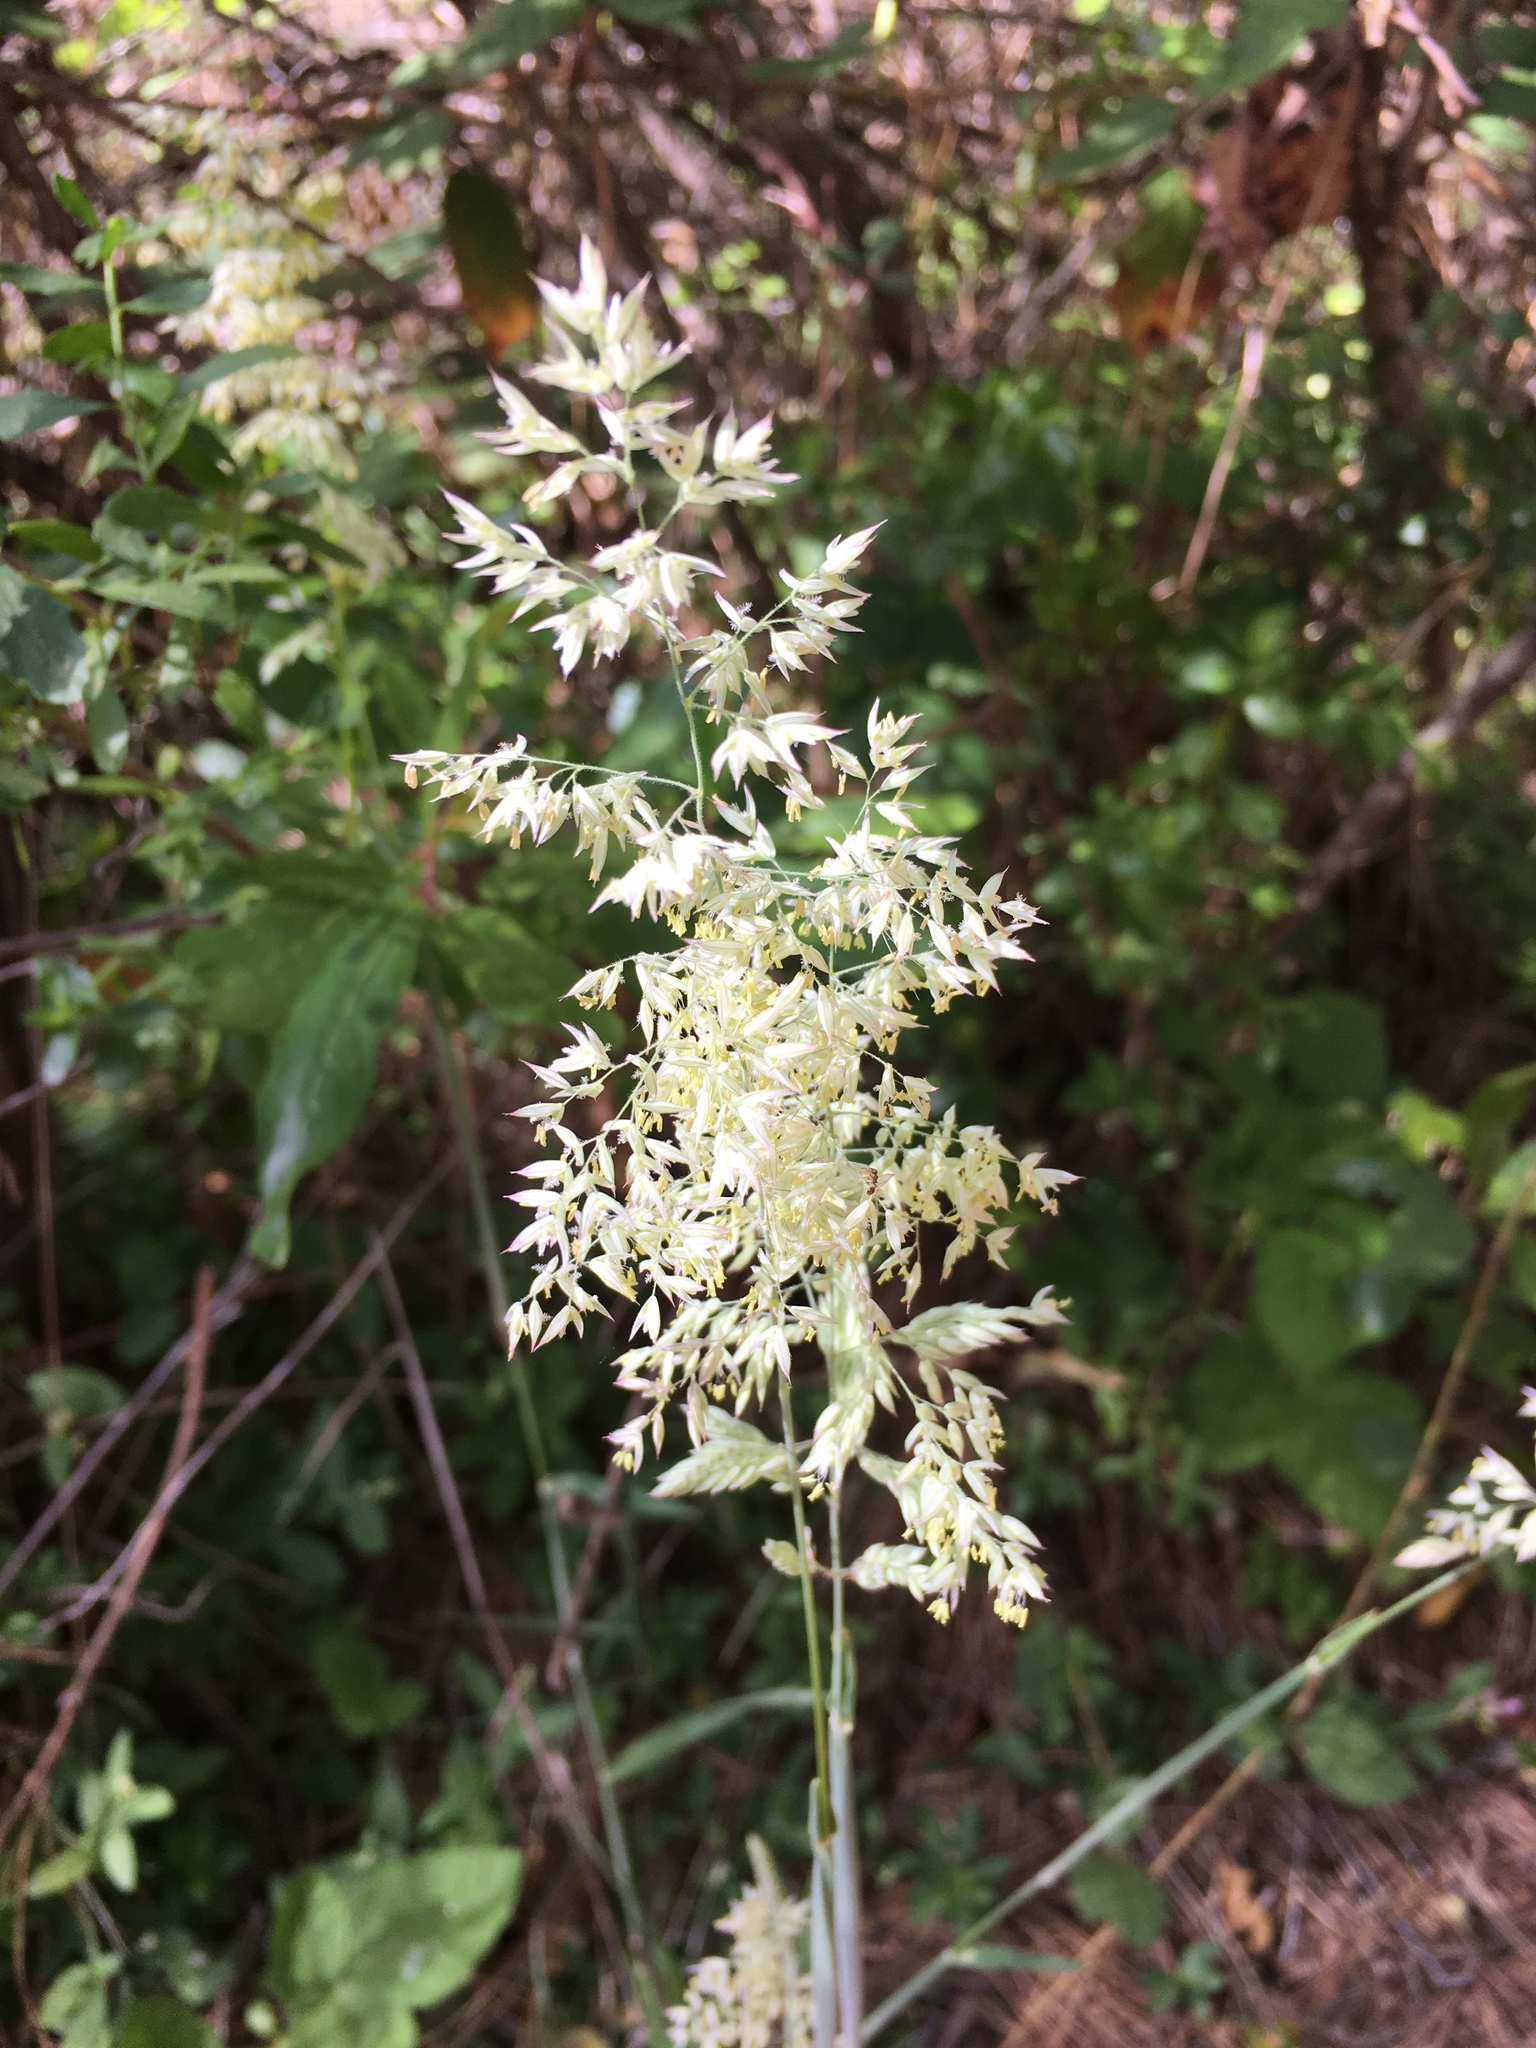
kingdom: Plantae
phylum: Tracheophyta
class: Liliopsida
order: Poales
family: Poaceae
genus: Holcus
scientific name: Holcus lanatus
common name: Yorkshire-fog
